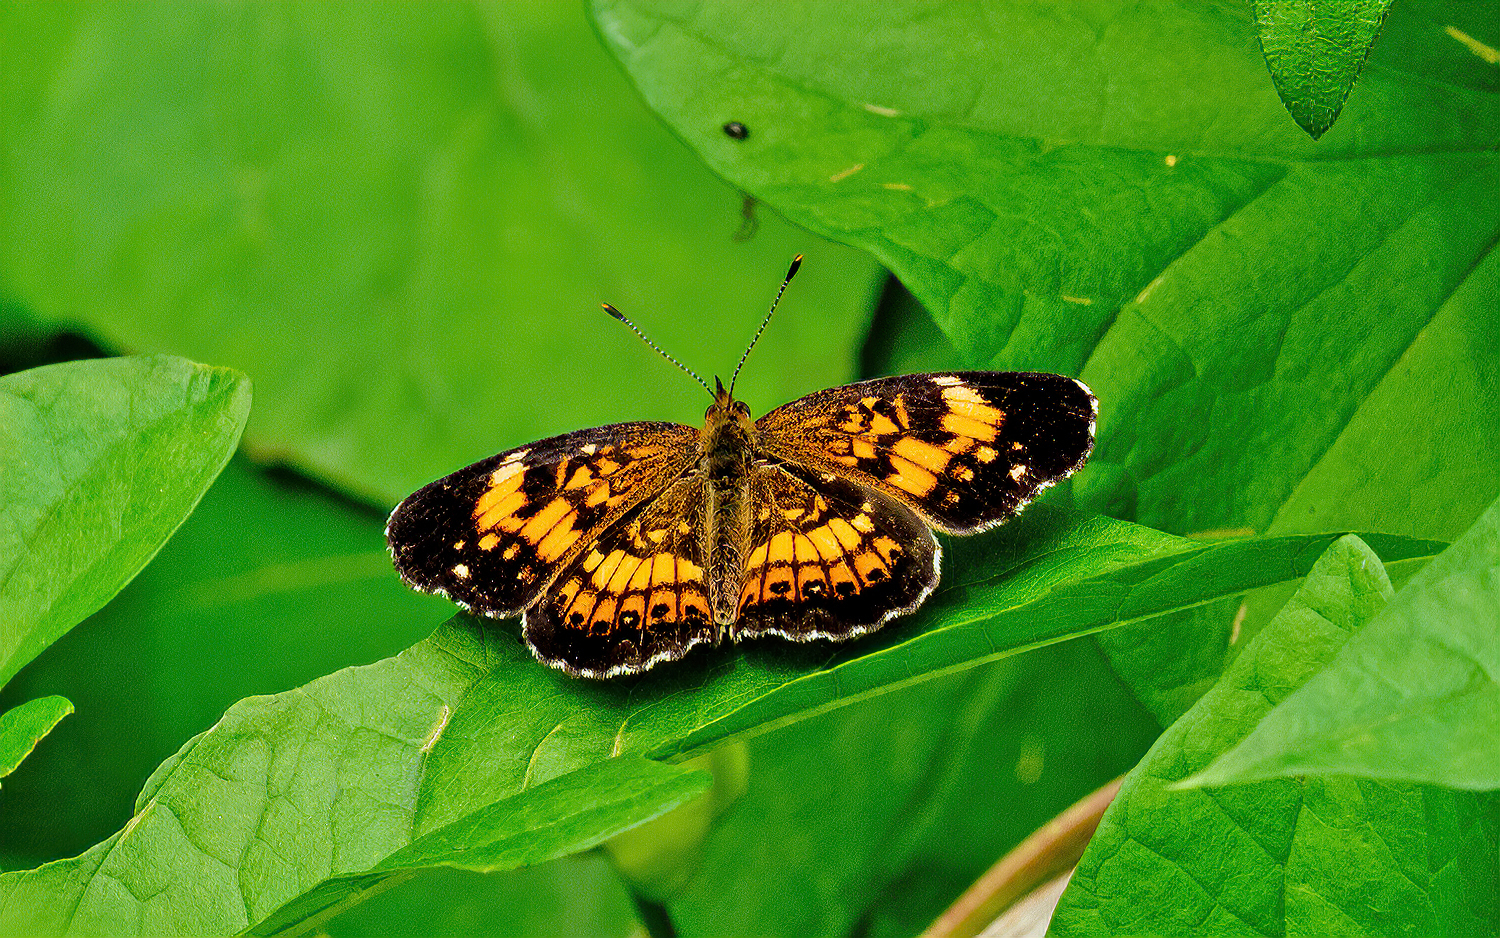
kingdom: Animalia
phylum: Arthropoda
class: Insecta
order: Lepidoptera
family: Nymphalidae
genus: Chlosyne
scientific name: Chlosyne nycteis
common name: Silvery checkerspot
